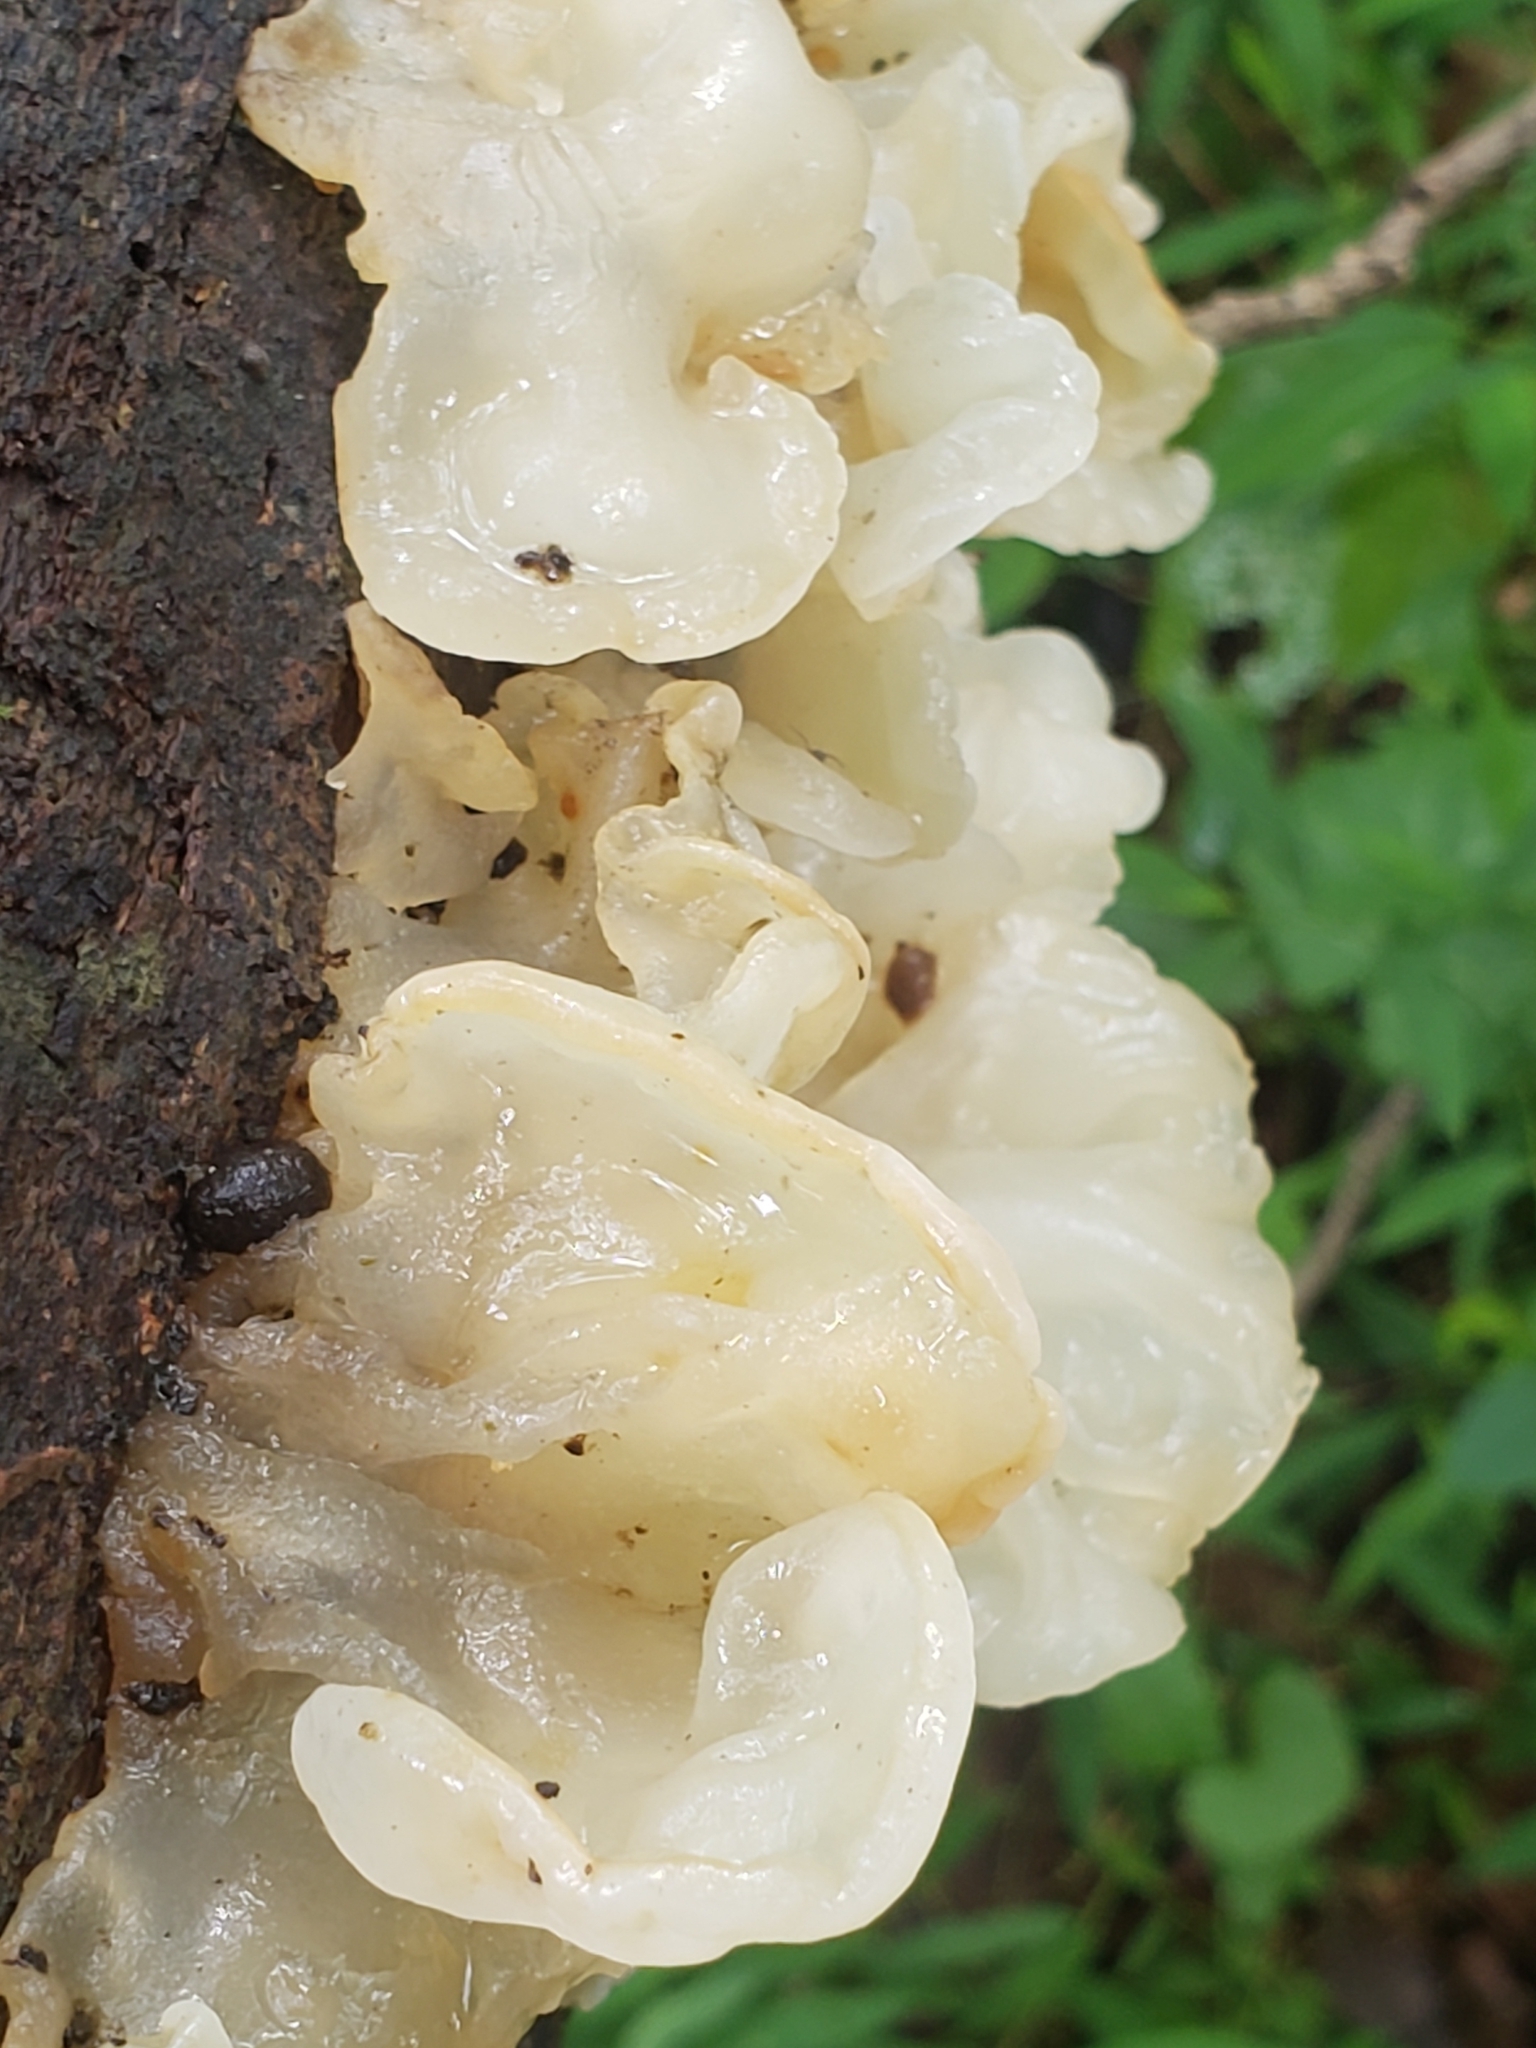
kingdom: Fungi
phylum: Basidiomycota
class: Agaricomycetes
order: Auriculariales
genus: Ductifera
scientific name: Ductifera pululahuana
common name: White jelly fungus
